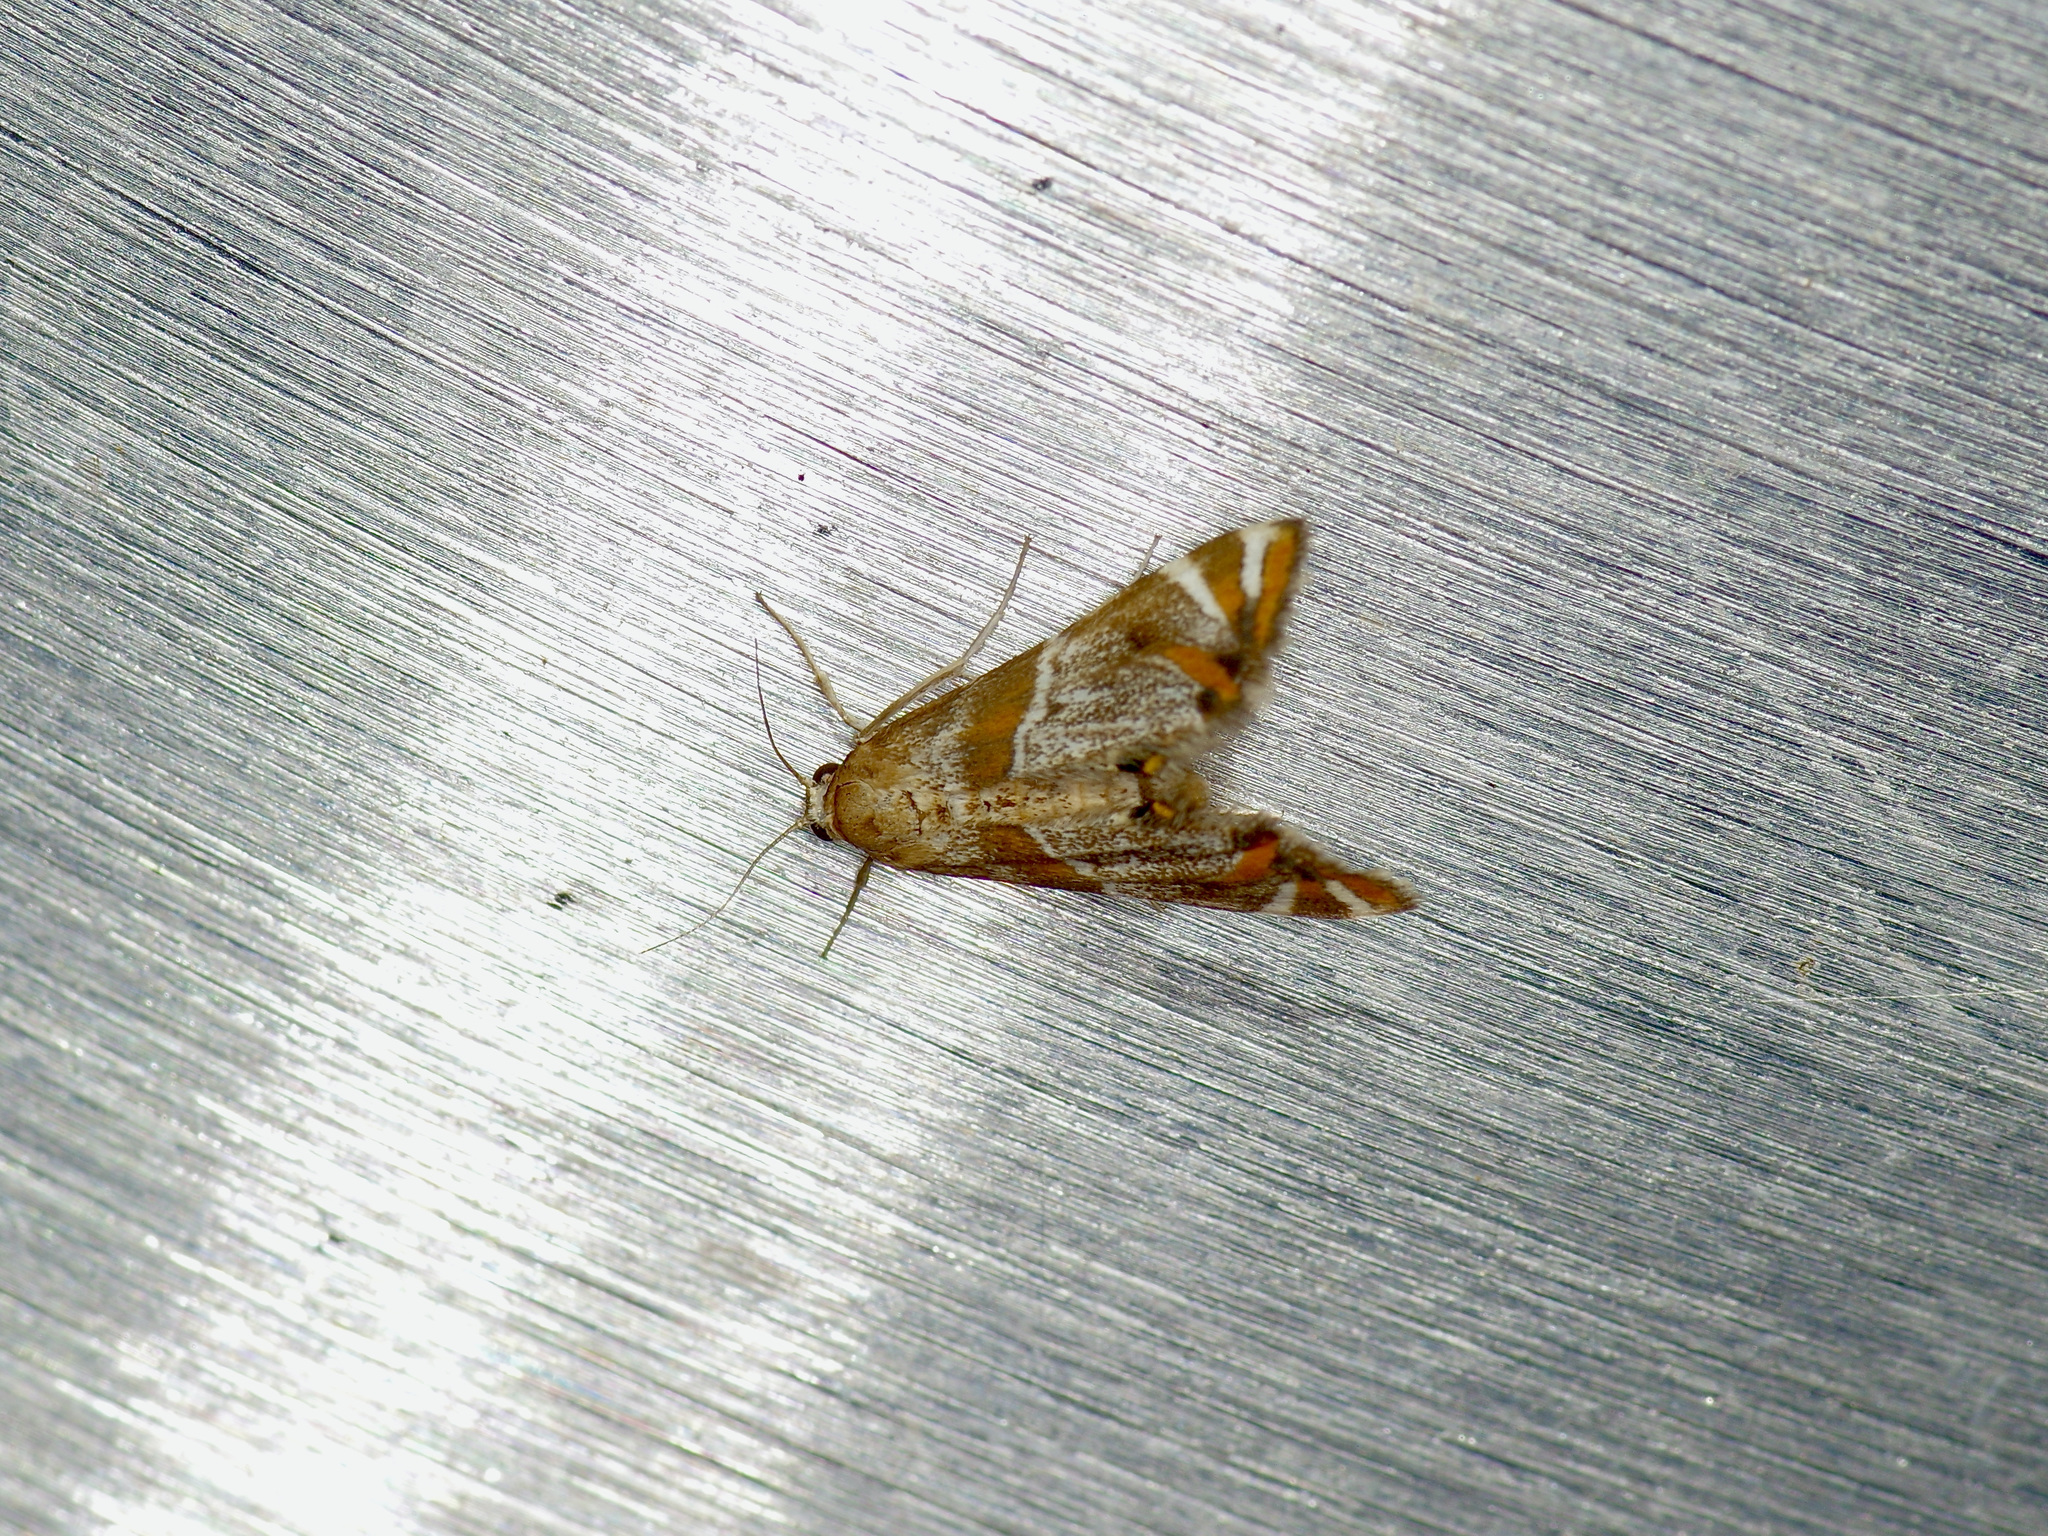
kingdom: Animalia
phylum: Arthropoda
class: Insecta
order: Lepidoptera
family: Crambidae
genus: Petrophila
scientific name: Petrophila jaliscalis
